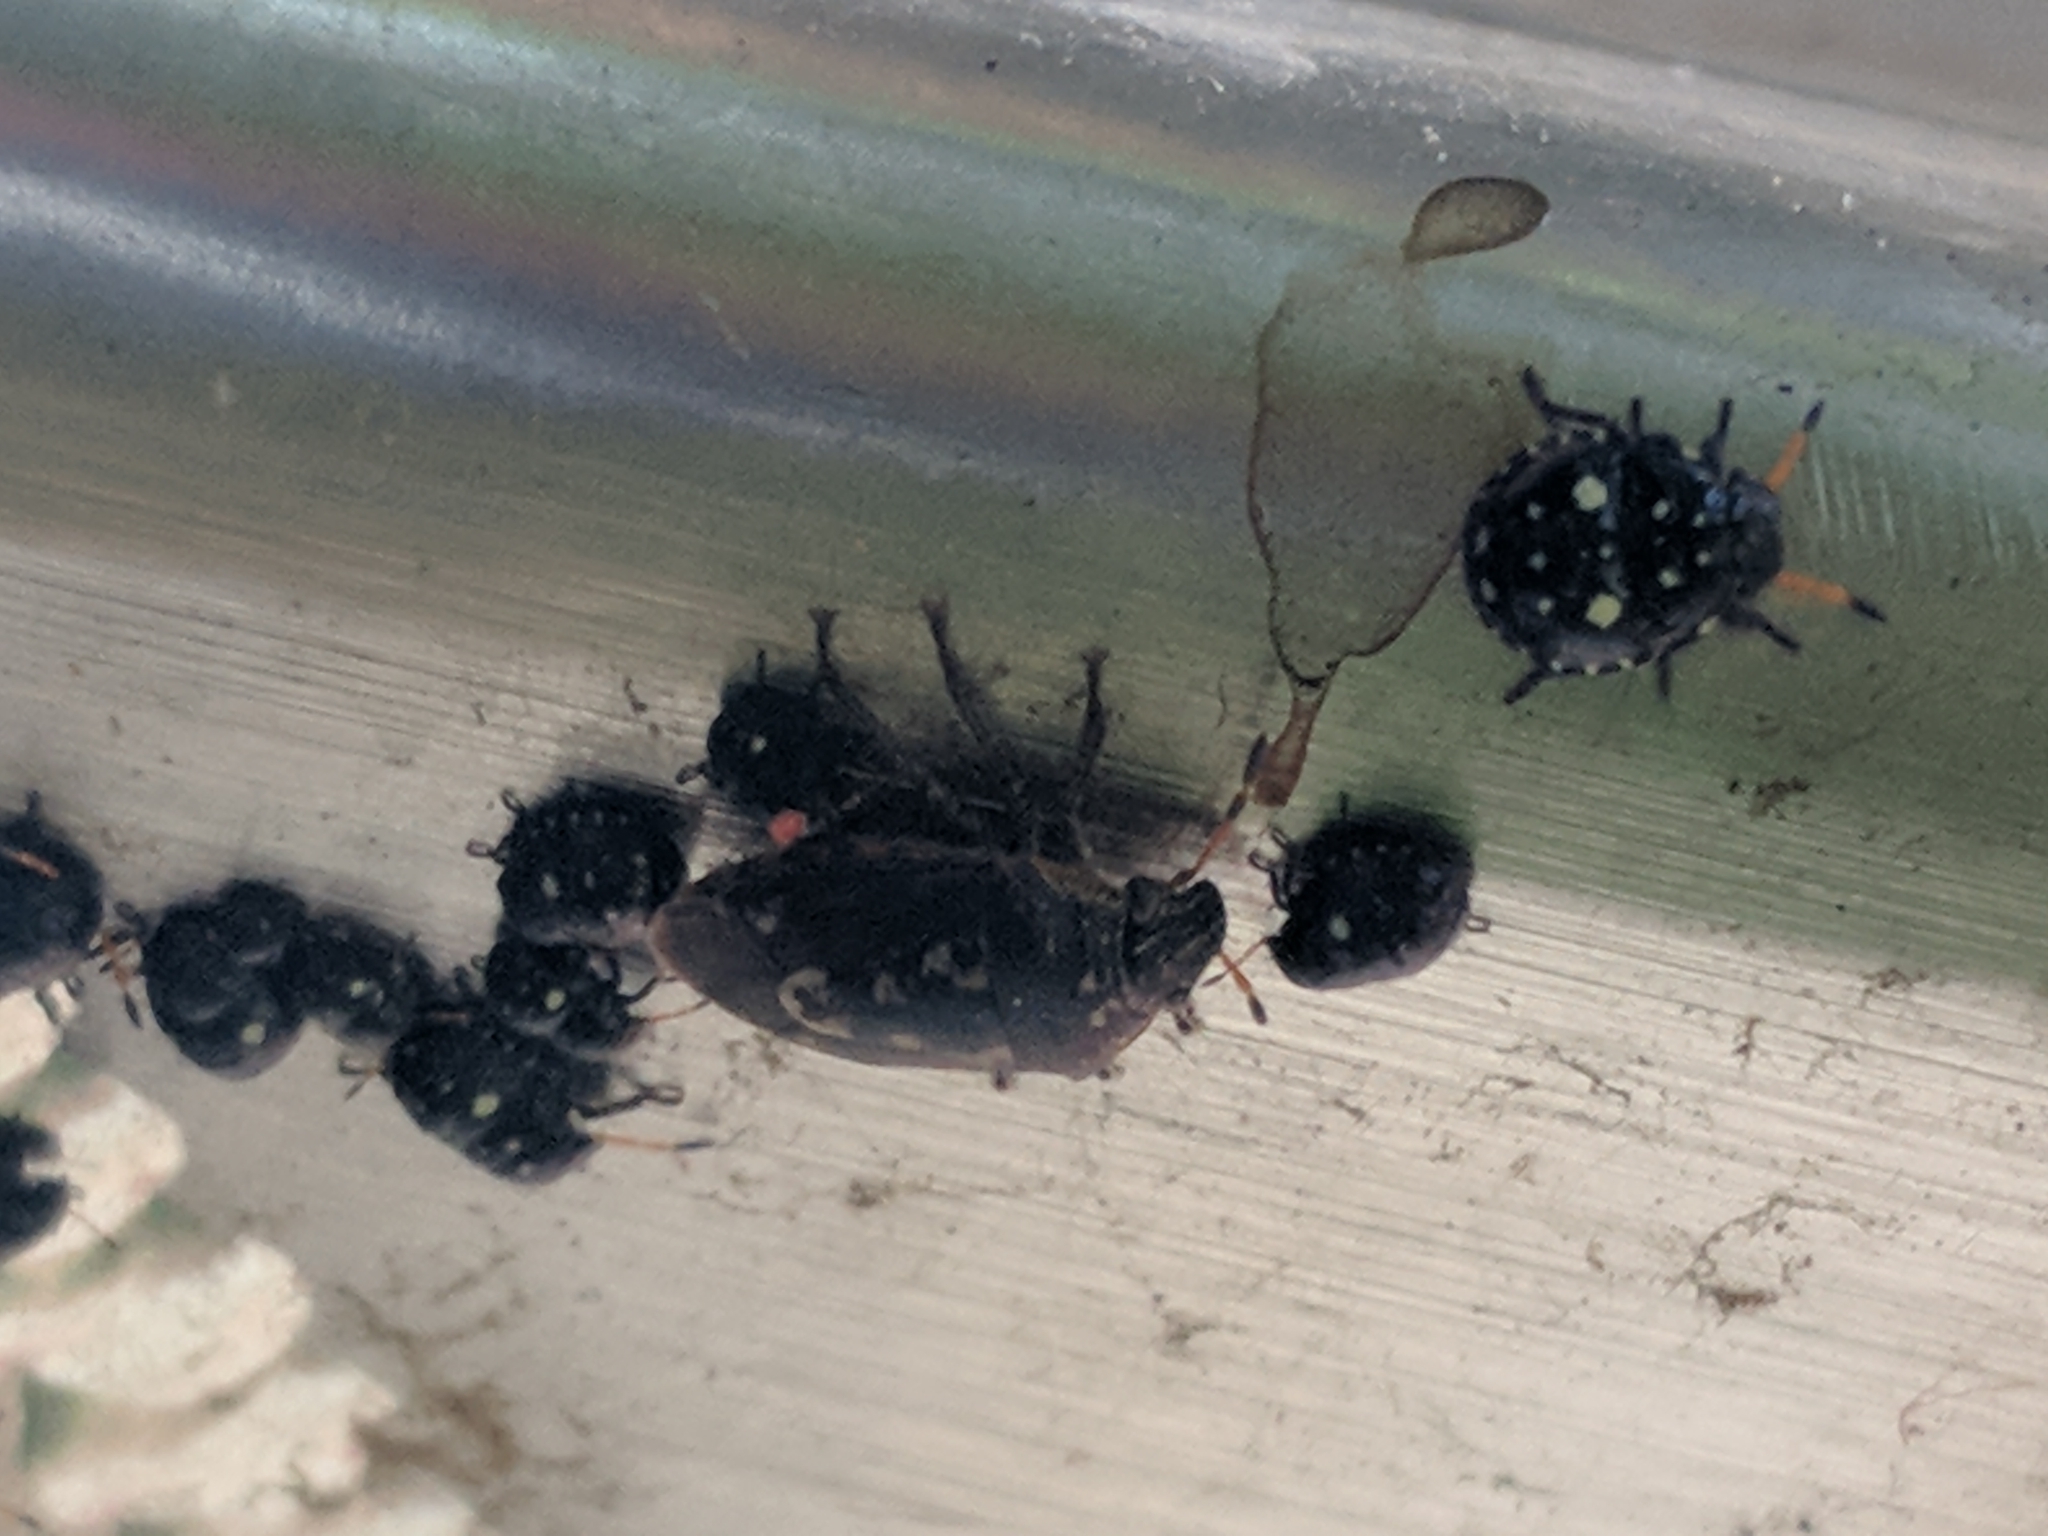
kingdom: Animalia
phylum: Arthropoda
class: Insecta
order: Hemiptera
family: Pentatomidae
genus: Pseudapines
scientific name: Pseudapines
